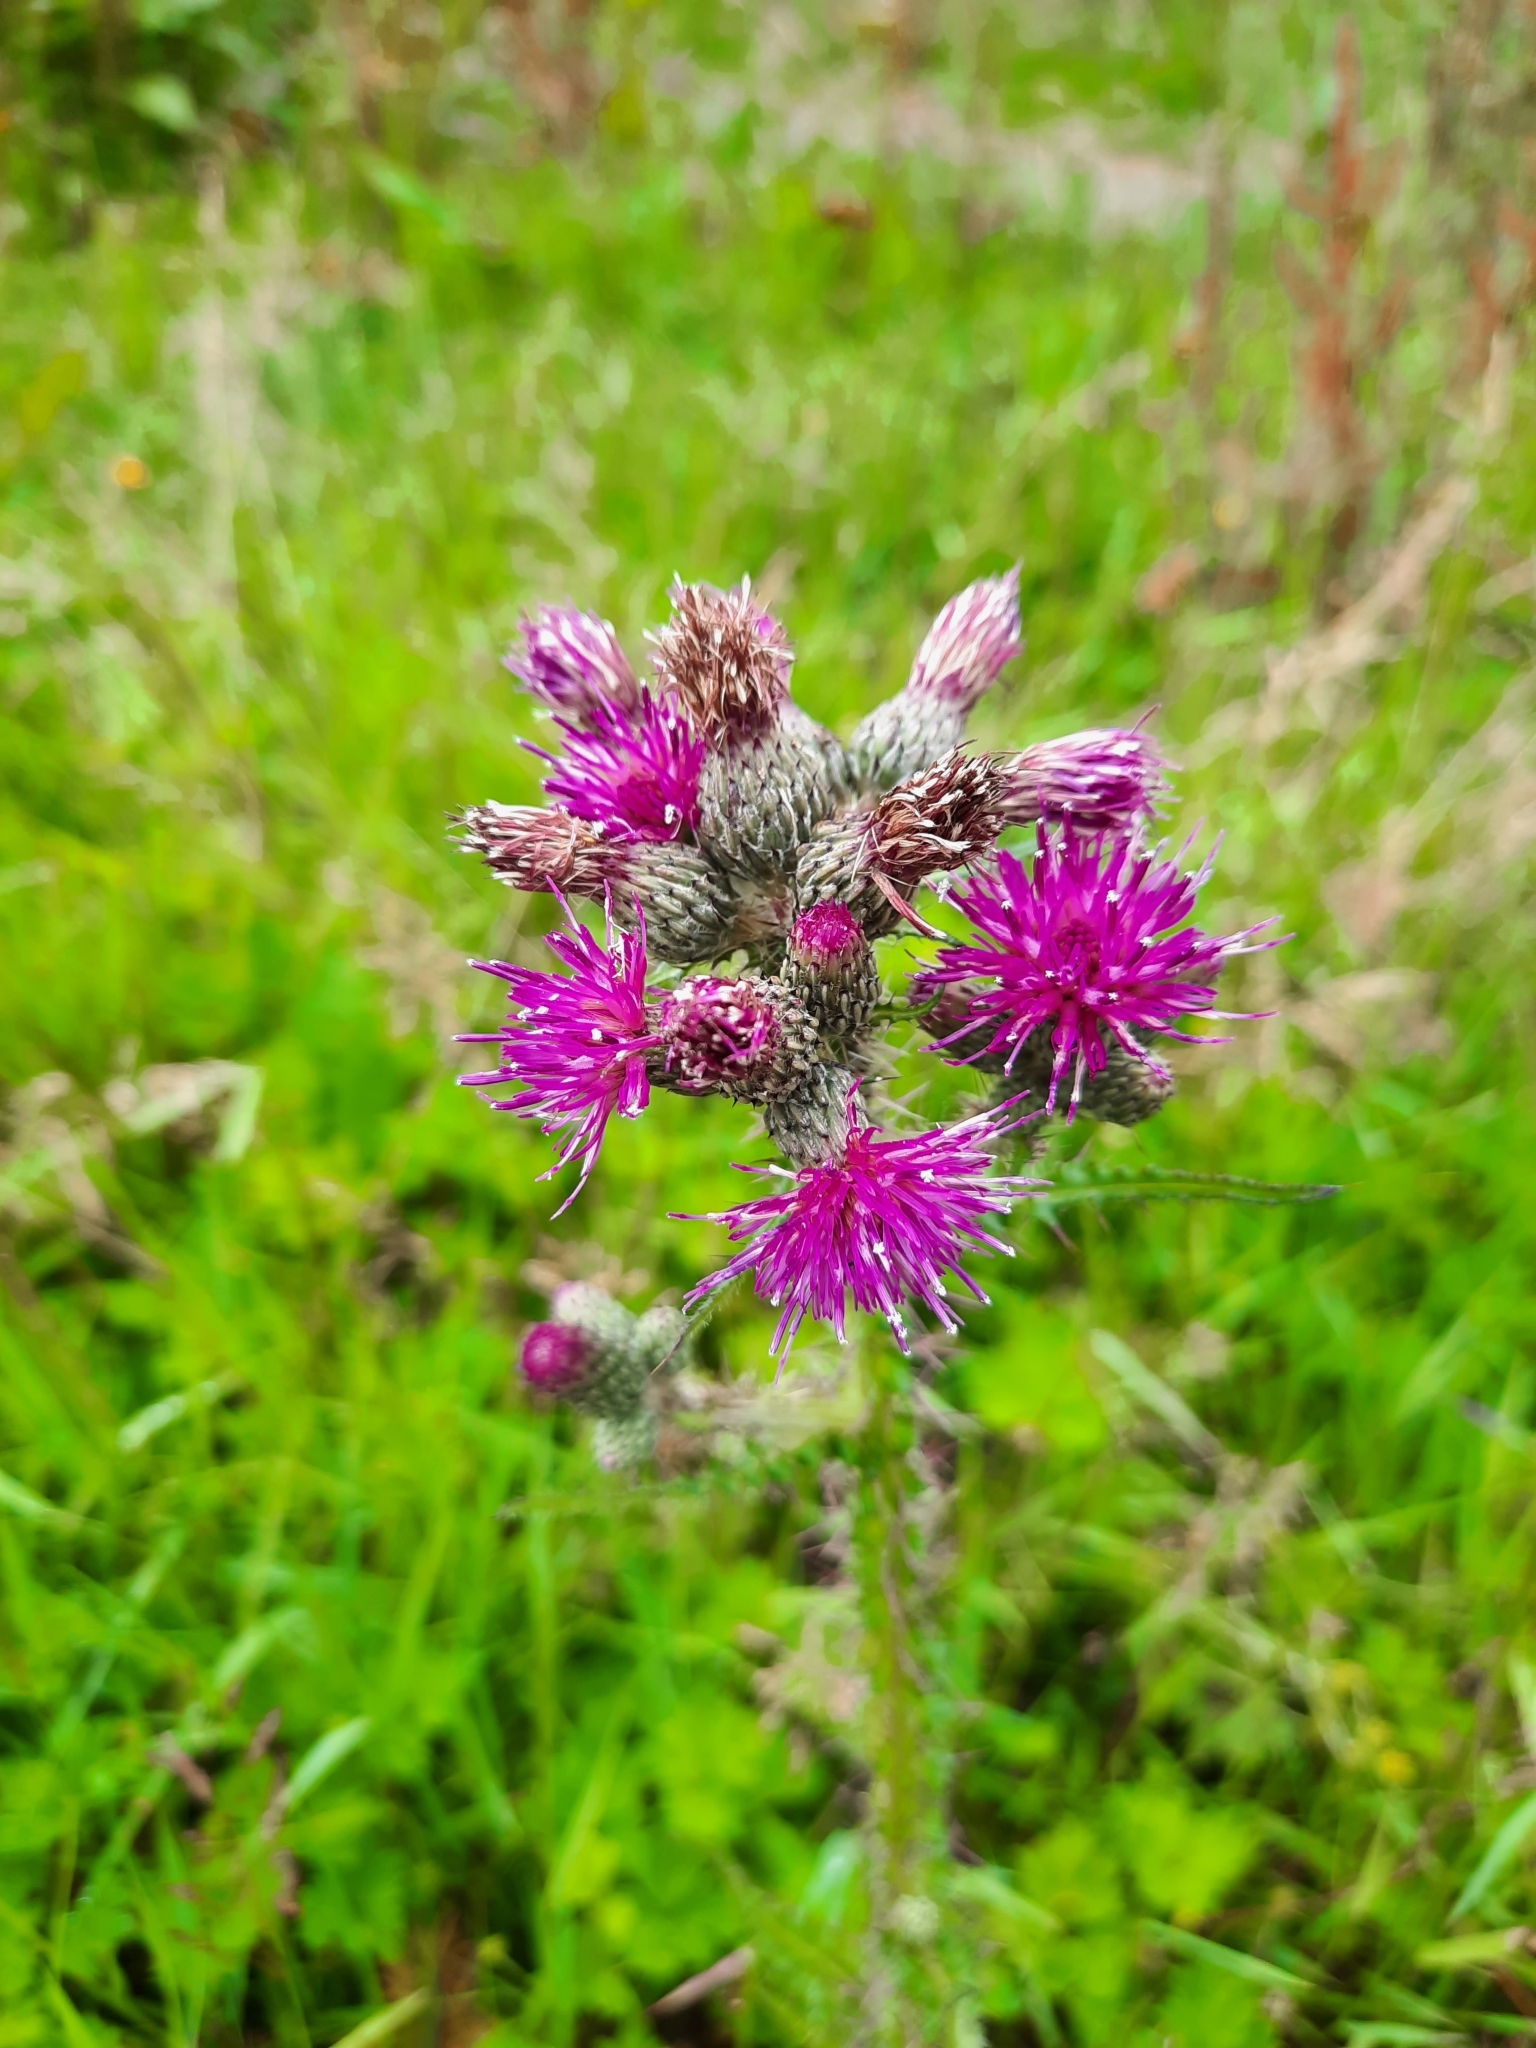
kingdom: Plantae
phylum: Tracheophyta
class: Magnoliopsida
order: Asterales
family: Asteraceae
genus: Cirsium
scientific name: Cirsium palustre
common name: Marsh thistle
